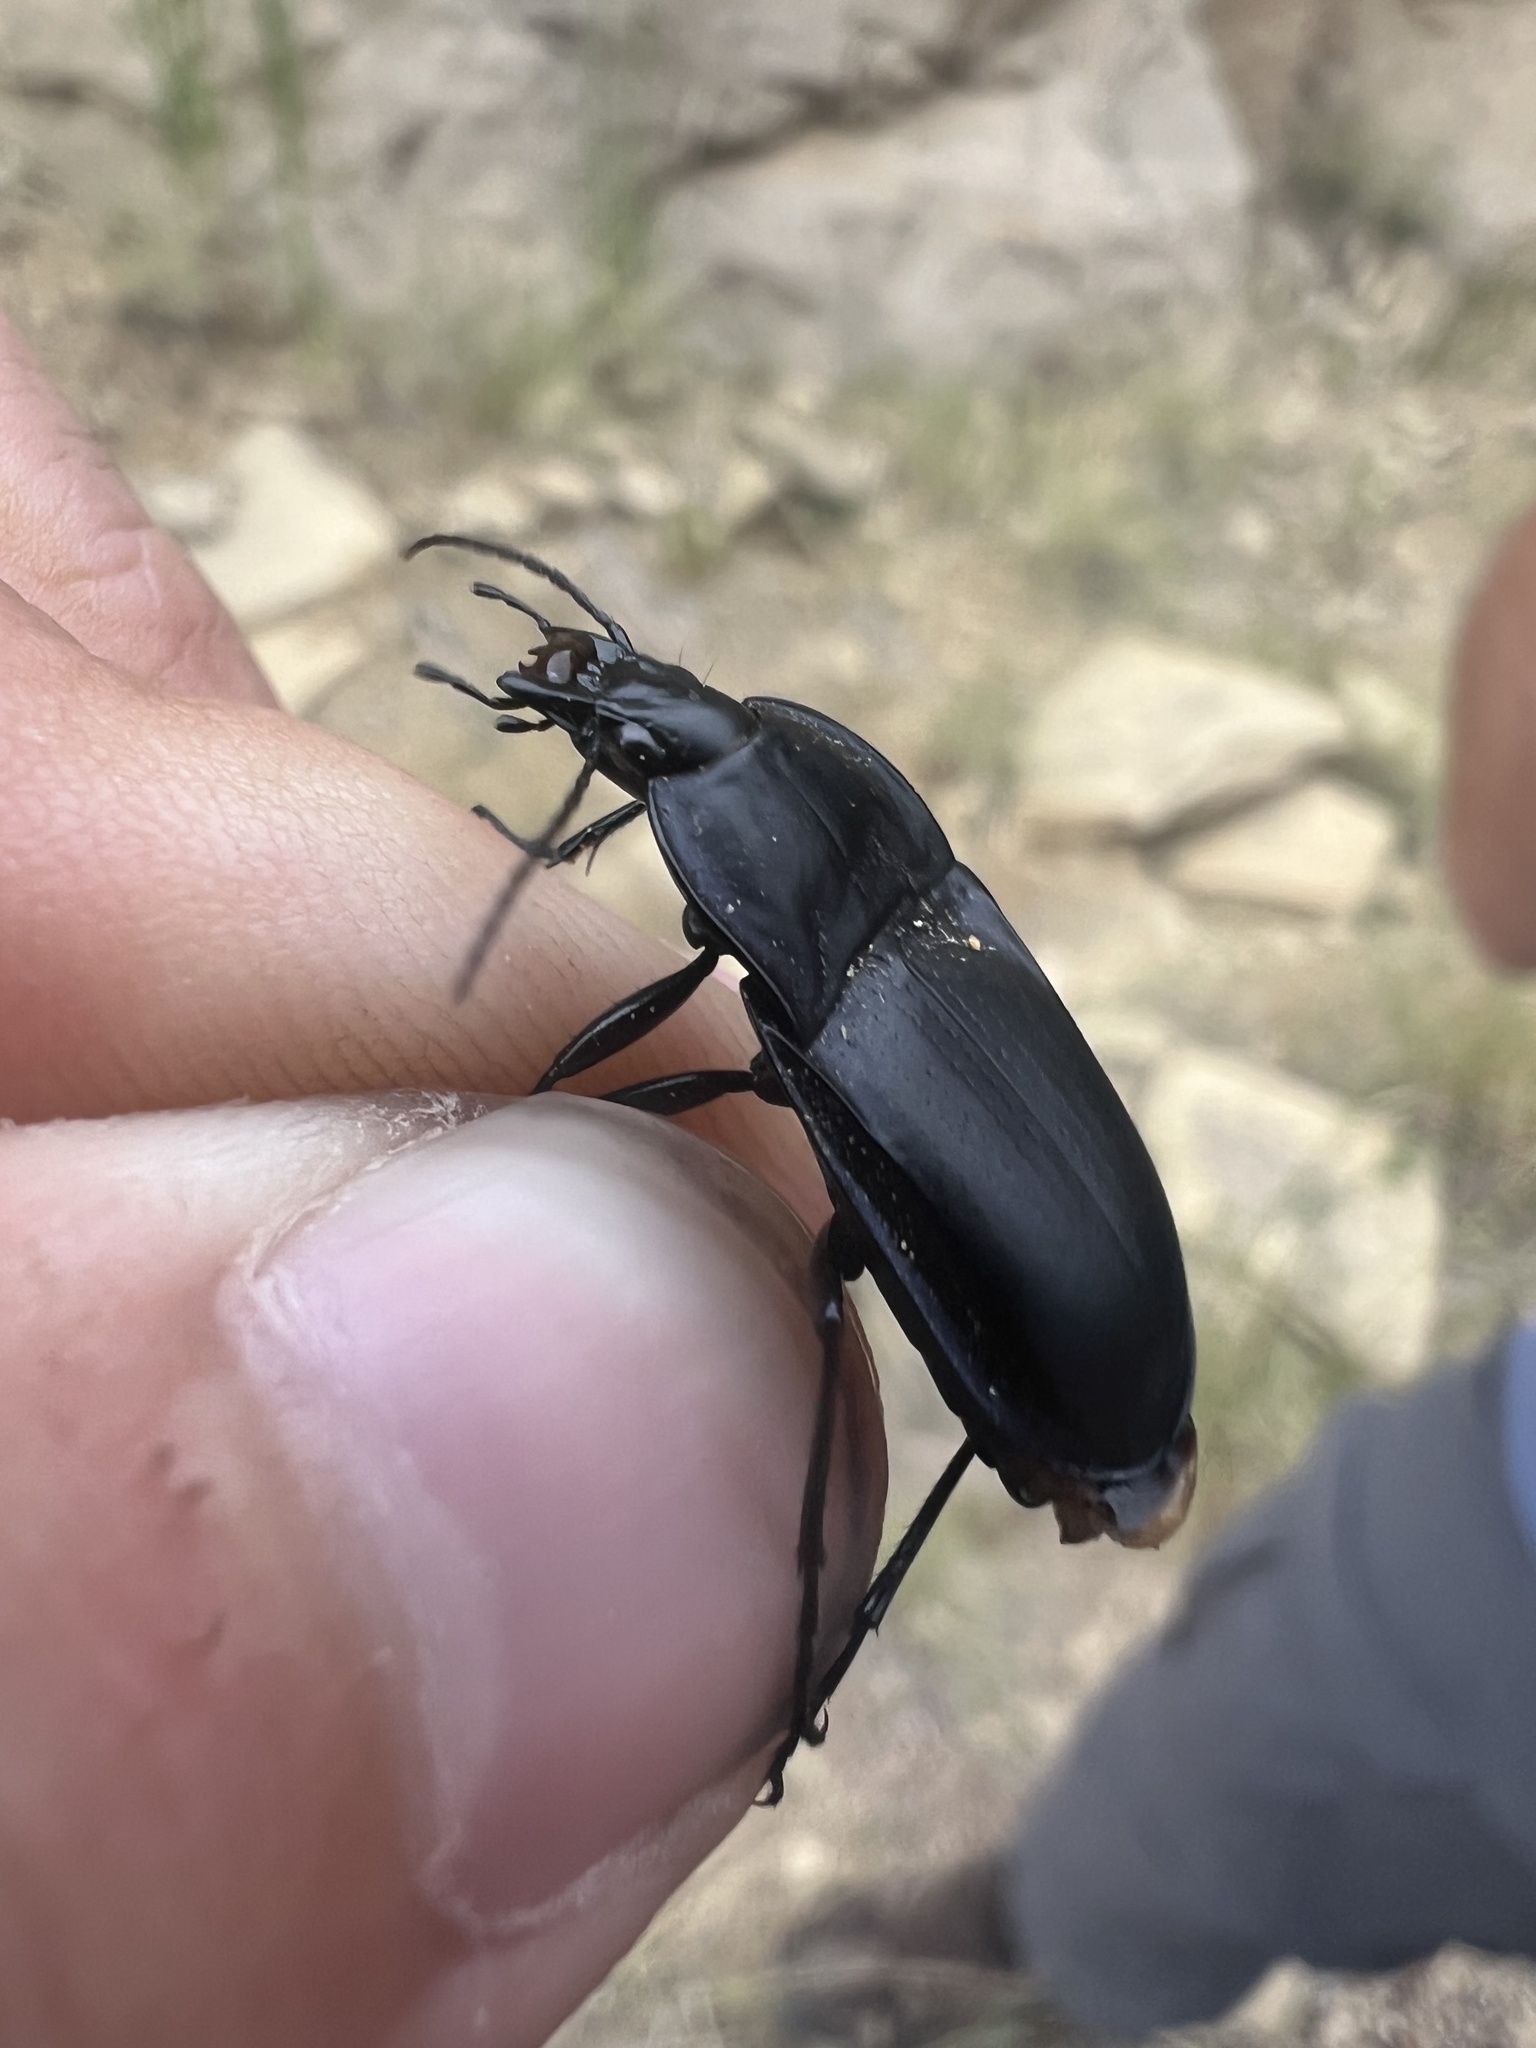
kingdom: Animalia
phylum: Arthropoda
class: Insecta
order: Coleoptera
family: Carabidae
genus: Dicaelus
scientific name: Dicaelus laevipennis
